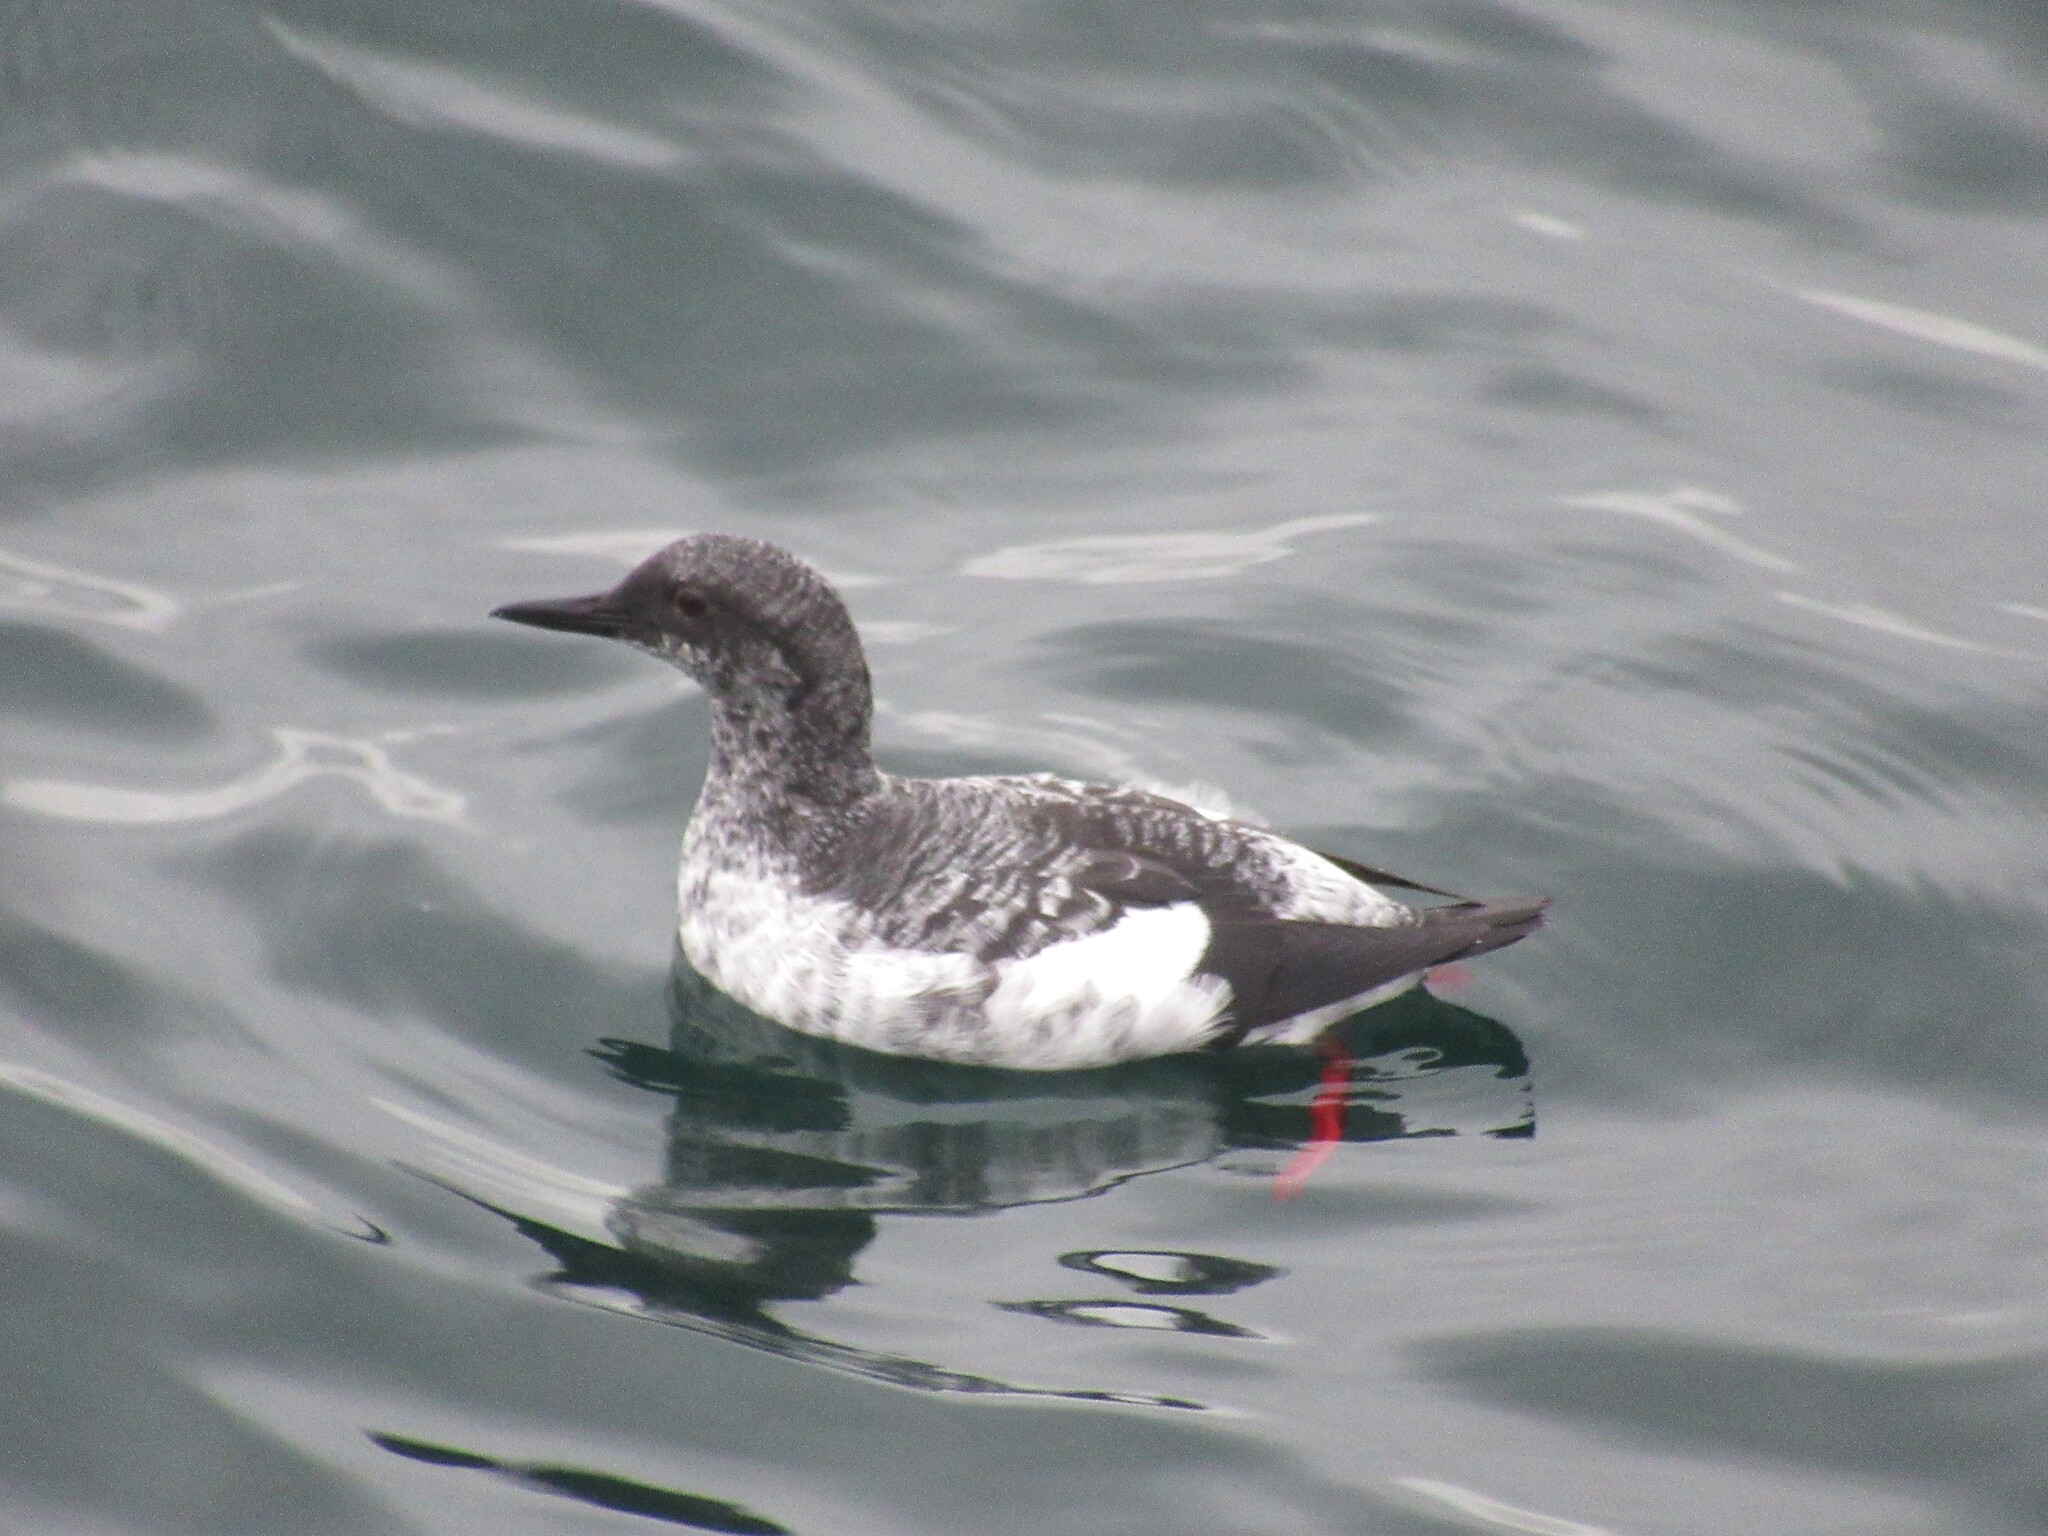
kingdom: Animalia
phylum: Chordata
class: Aves
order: Charadriiformes
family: Alcidae
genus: Cepphus
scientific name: Cepphus columba
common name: Pigeon guillemot
